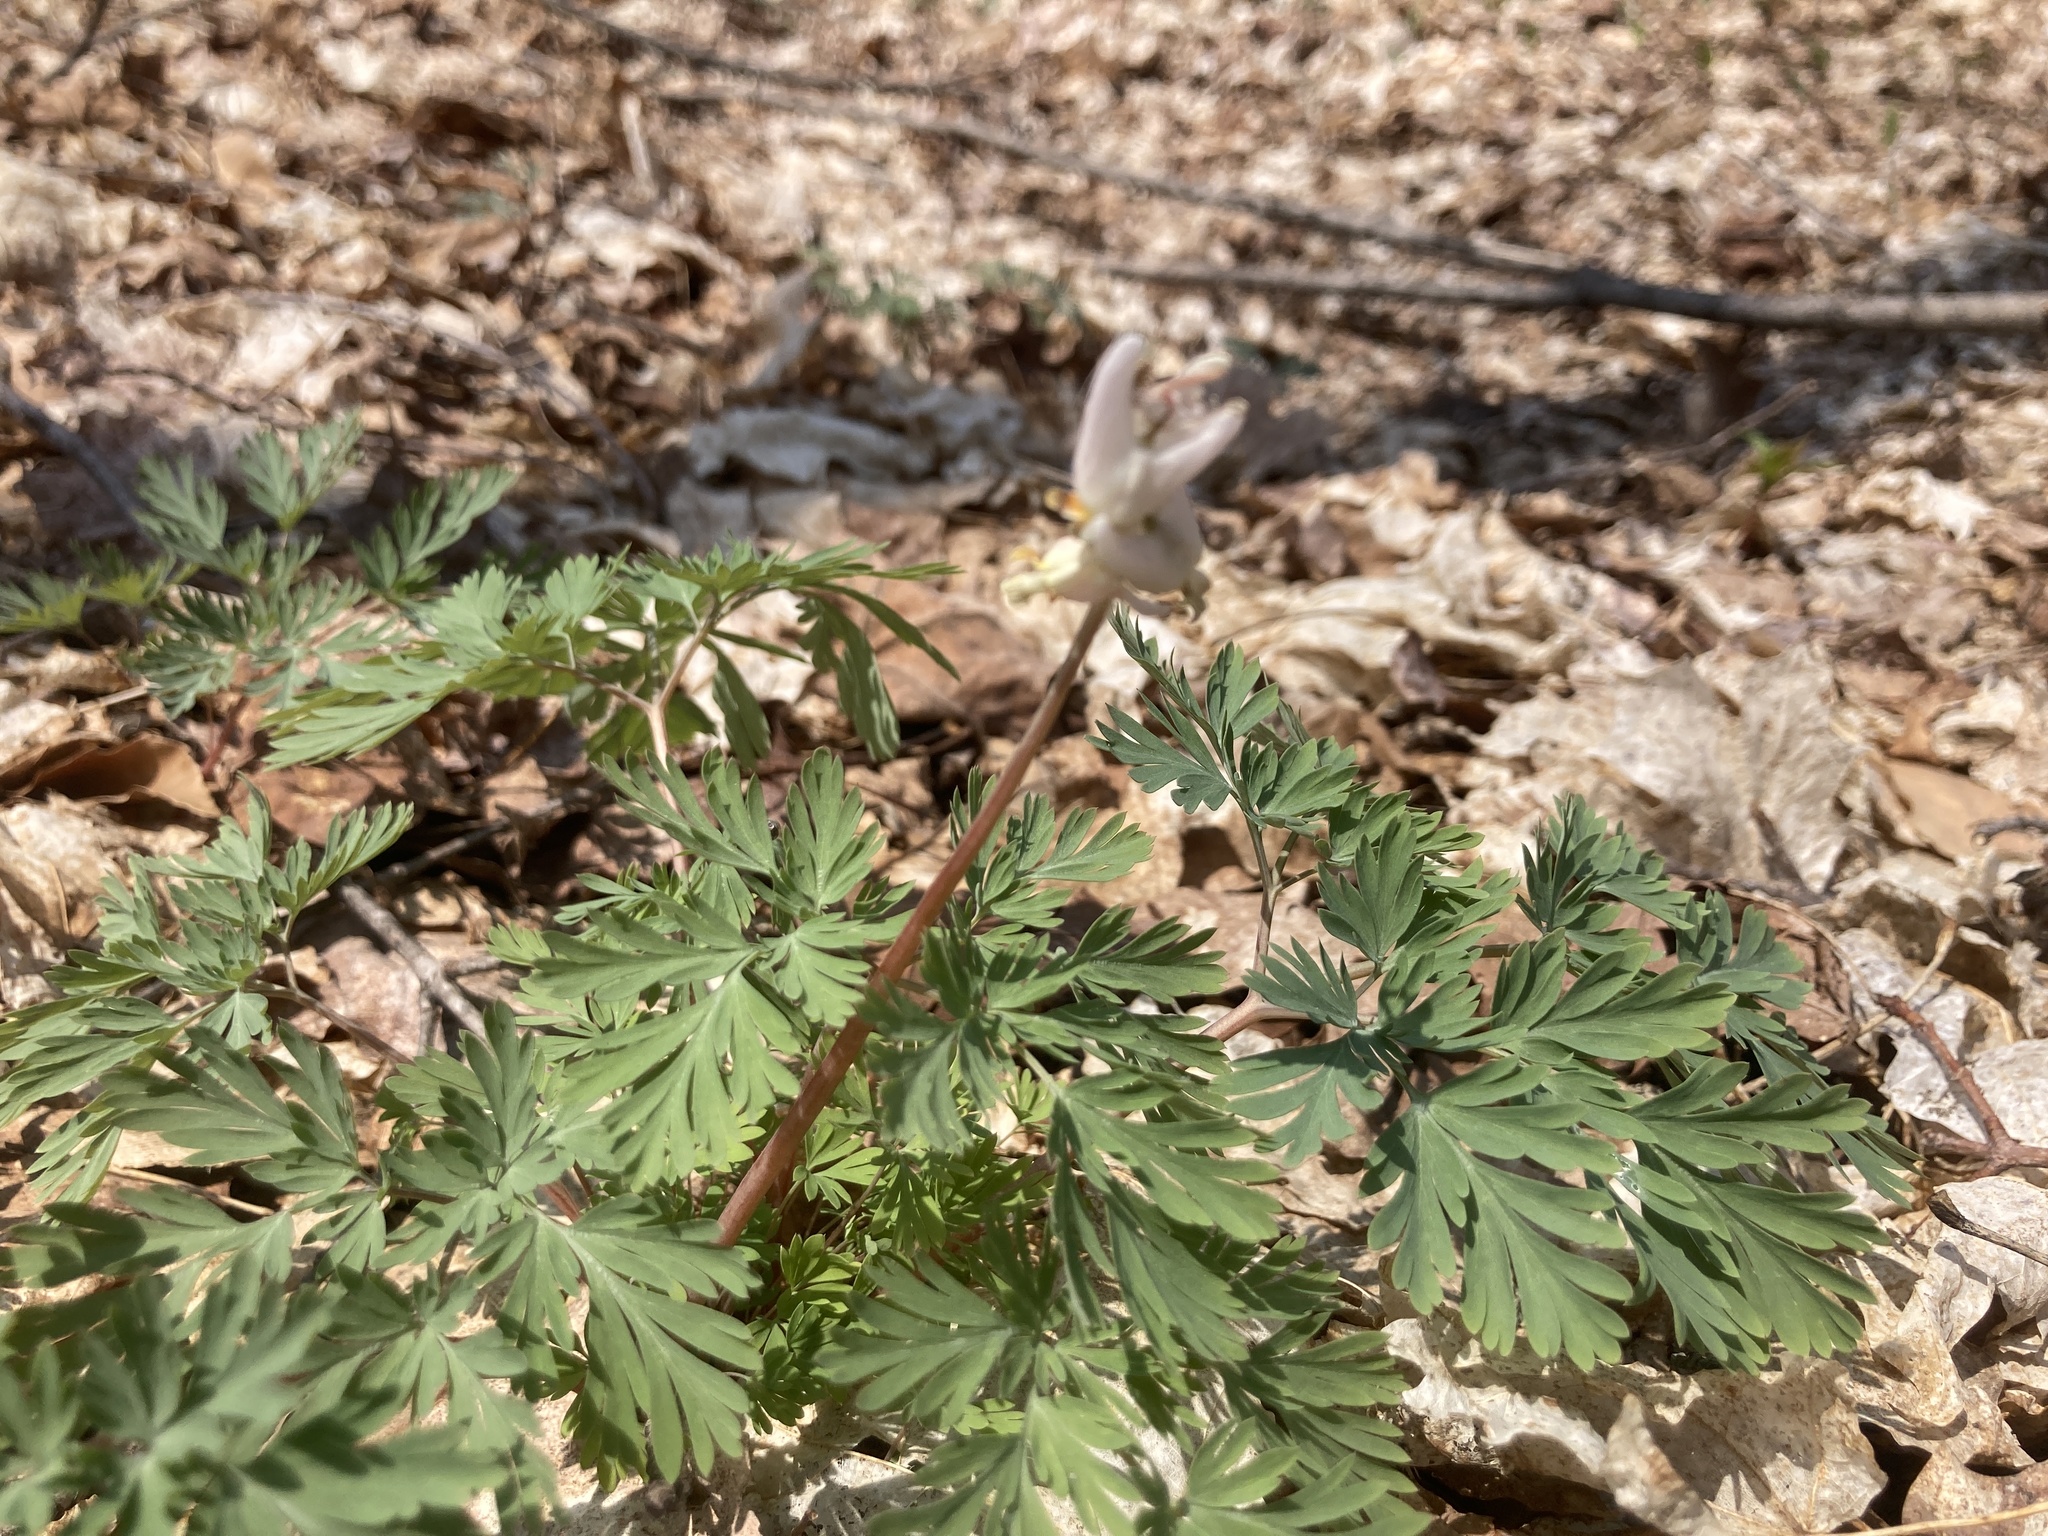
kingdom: Plantae
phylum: Tracheophyta
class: Magnoliopsida
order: Ranunculales
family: Papaveraceae
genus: Dicentra
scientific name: Dicentra cucullaria
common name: Dutchman's breeches
